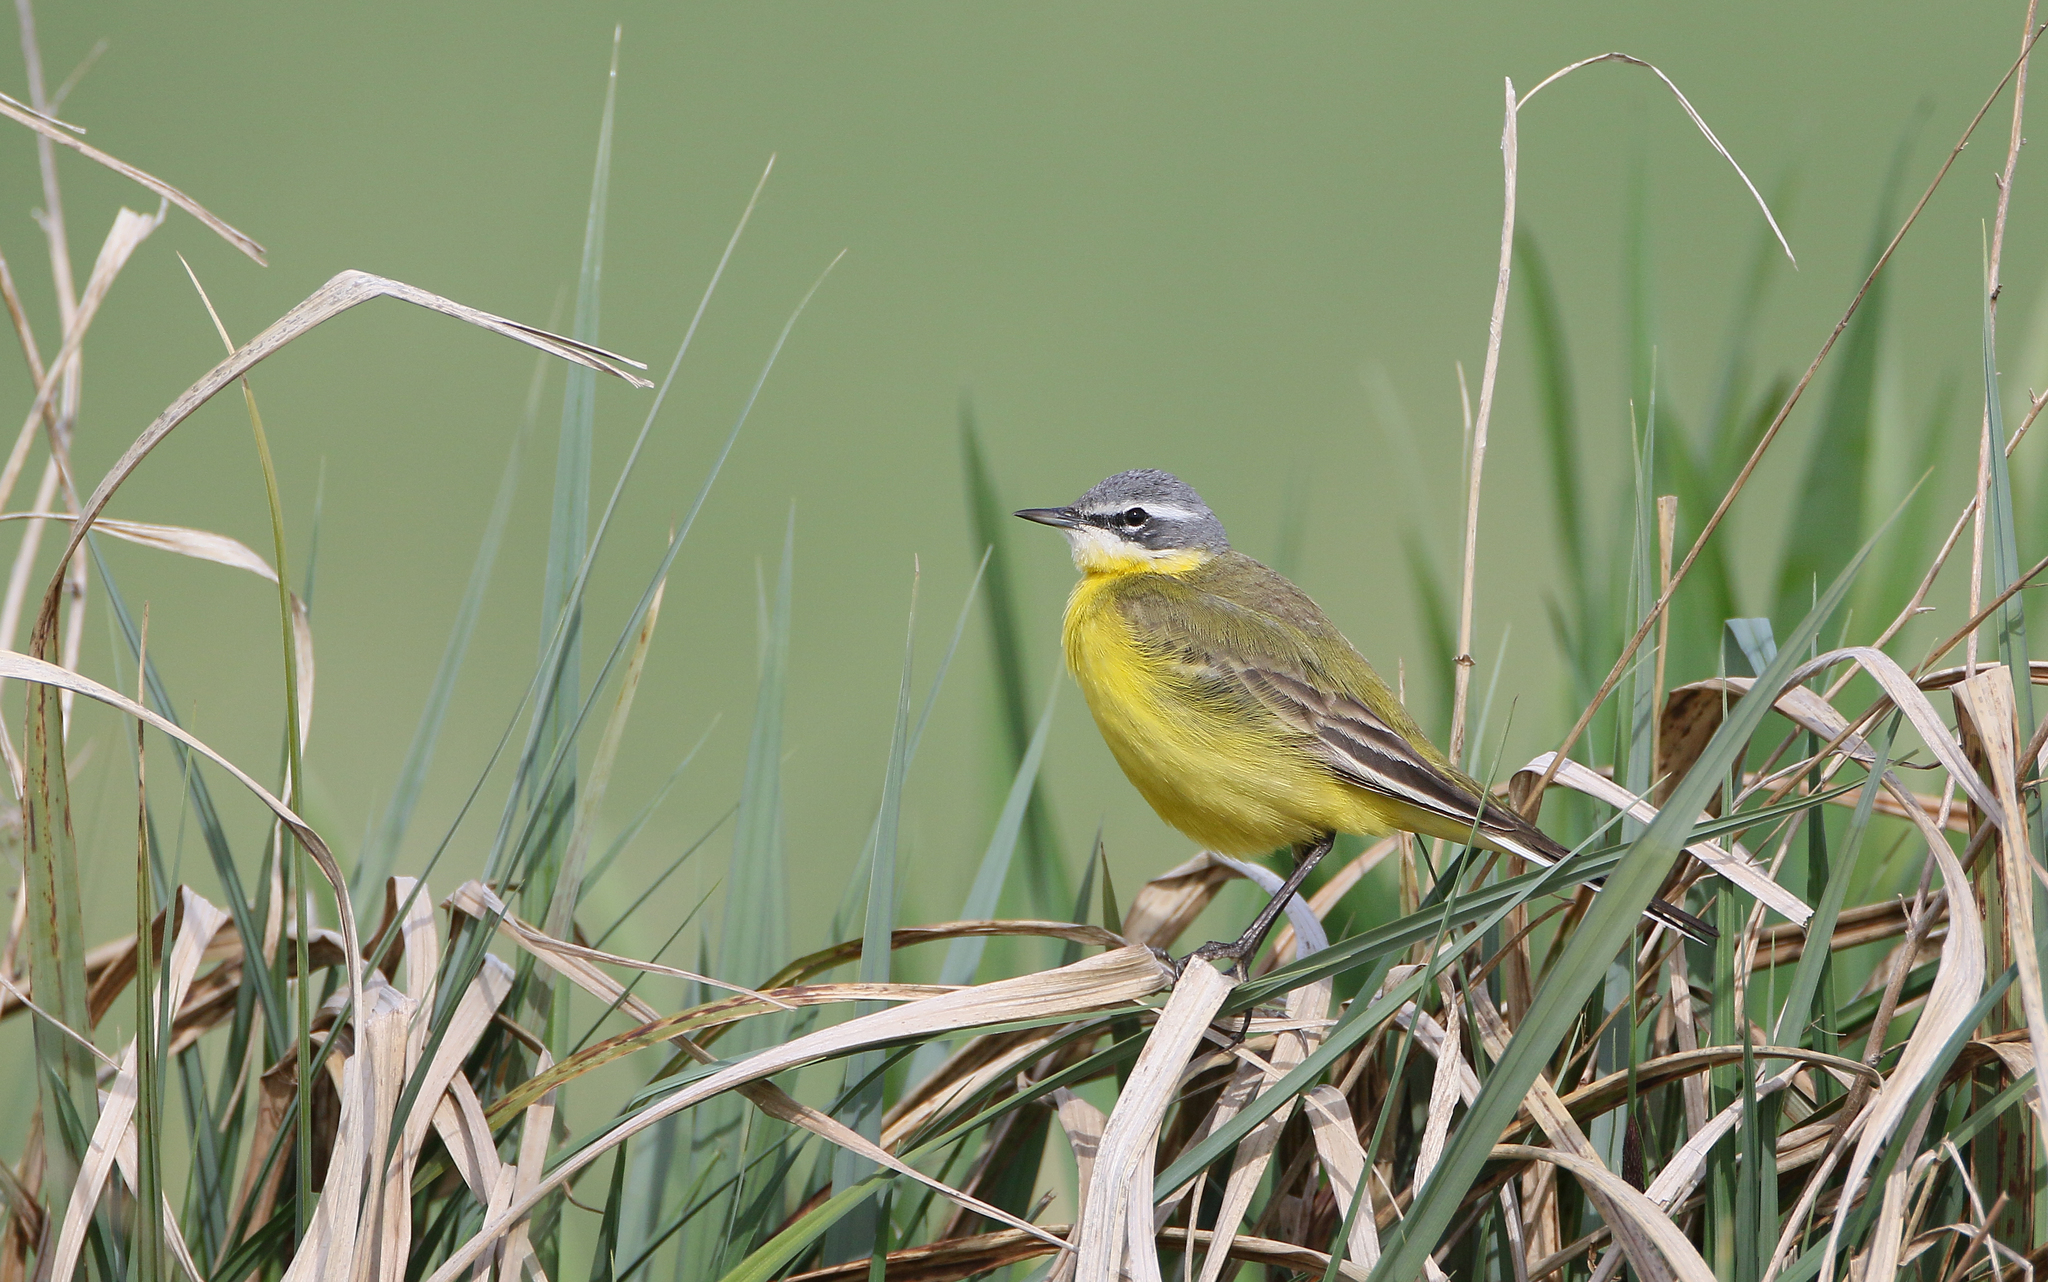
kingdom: Animalia
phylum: Chordata
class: Aves
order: Passeriformes
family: Motacillidae
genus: Motacilla
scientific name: Motacilla flava
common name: Western yellow wagtail
